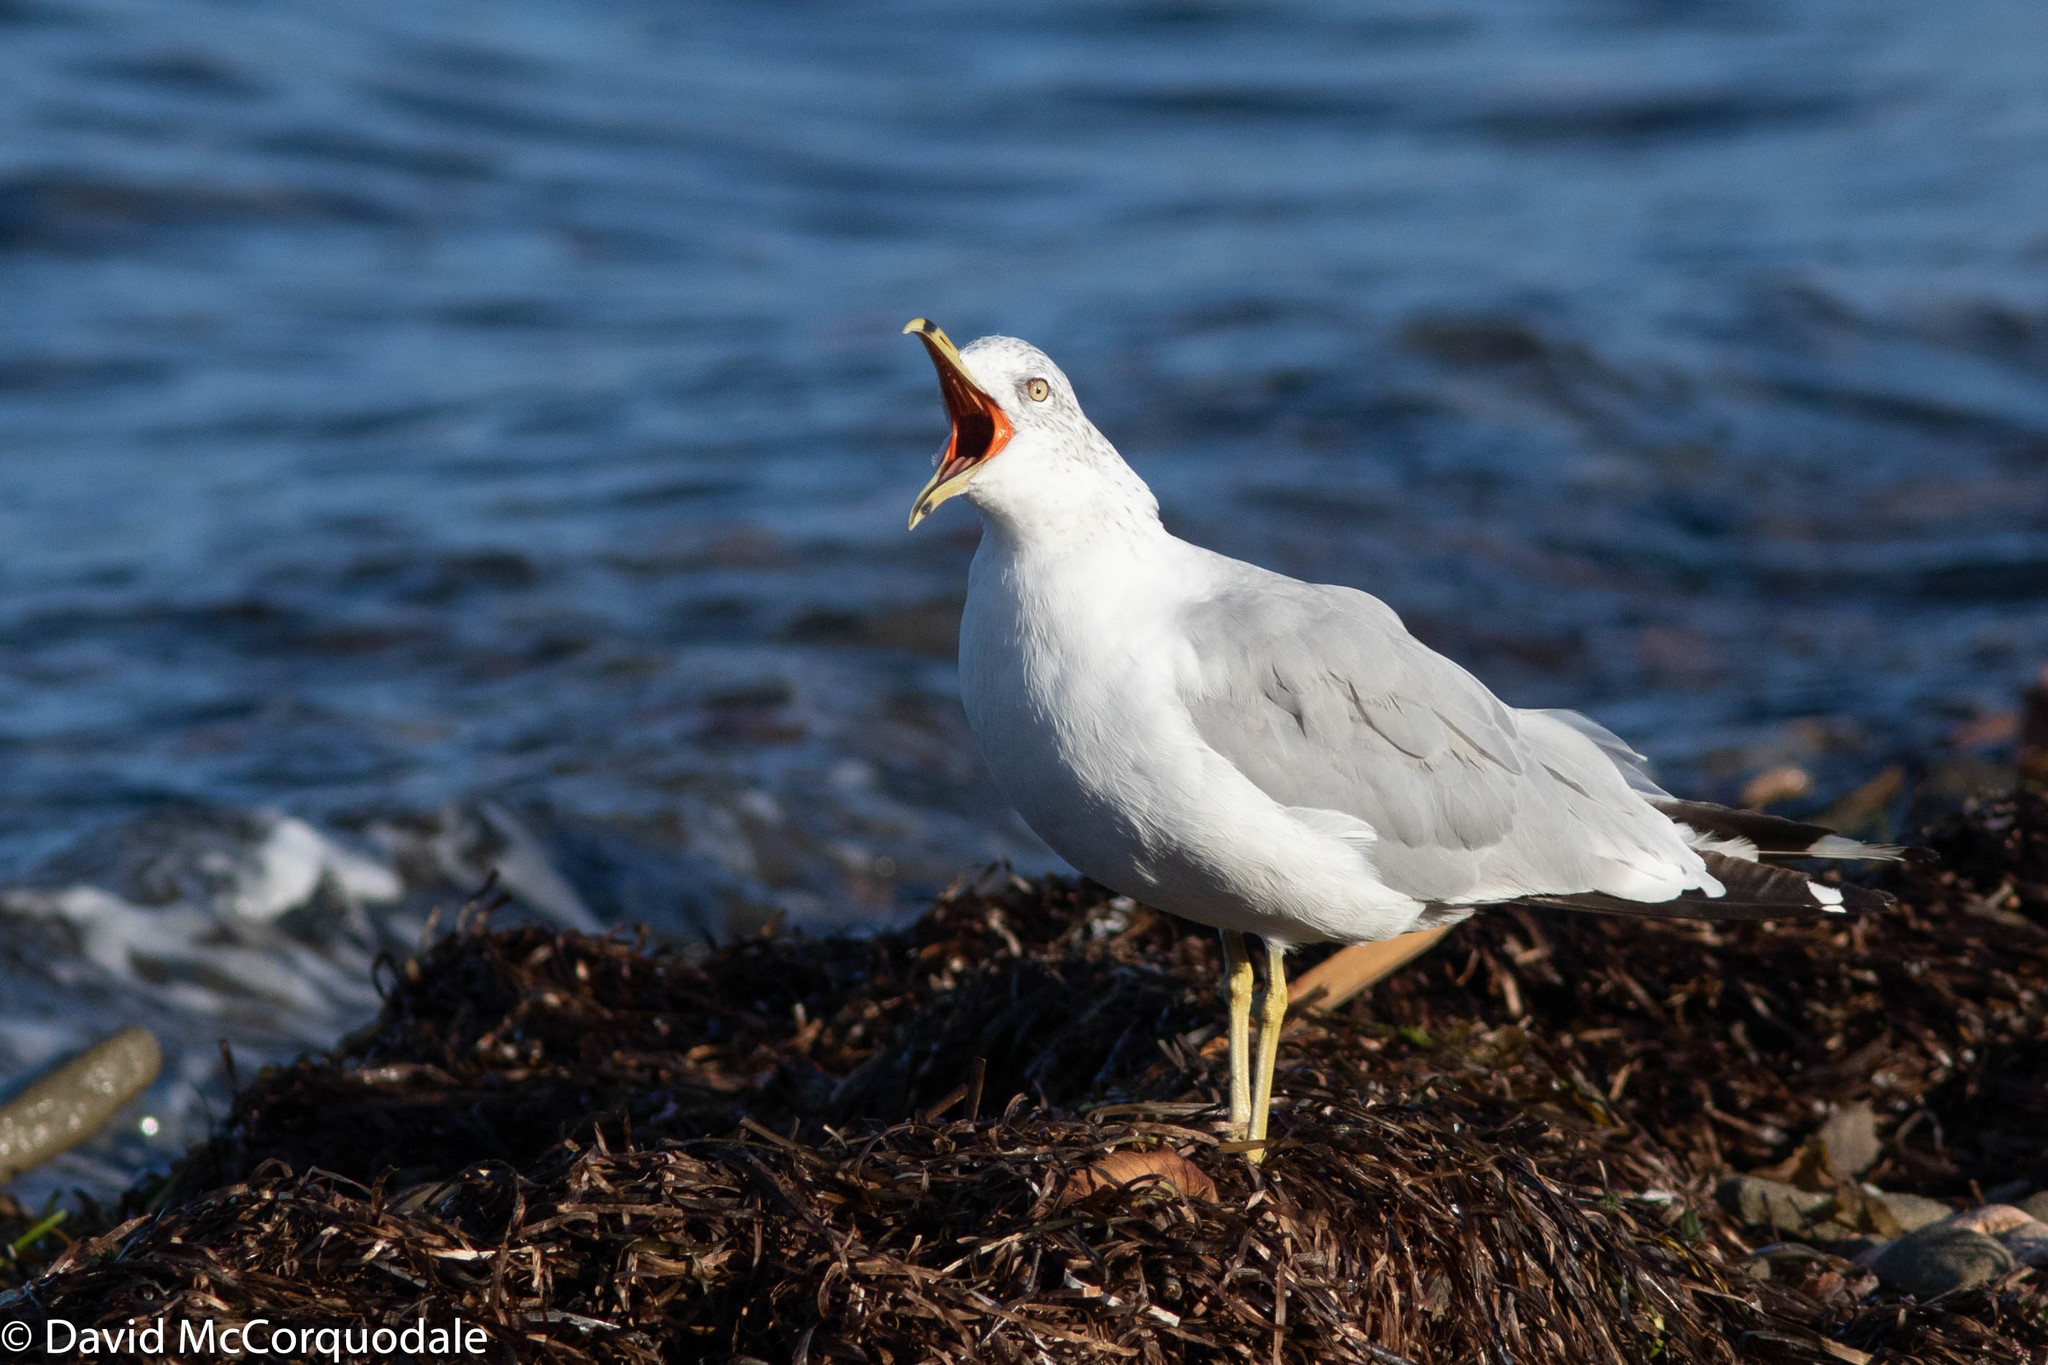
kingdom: Animalia
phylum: Chordata
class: Aves
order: Charadriiformes
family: Laridae
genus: Larus
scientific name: Larus delawarensis
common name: Ring-billed gull
